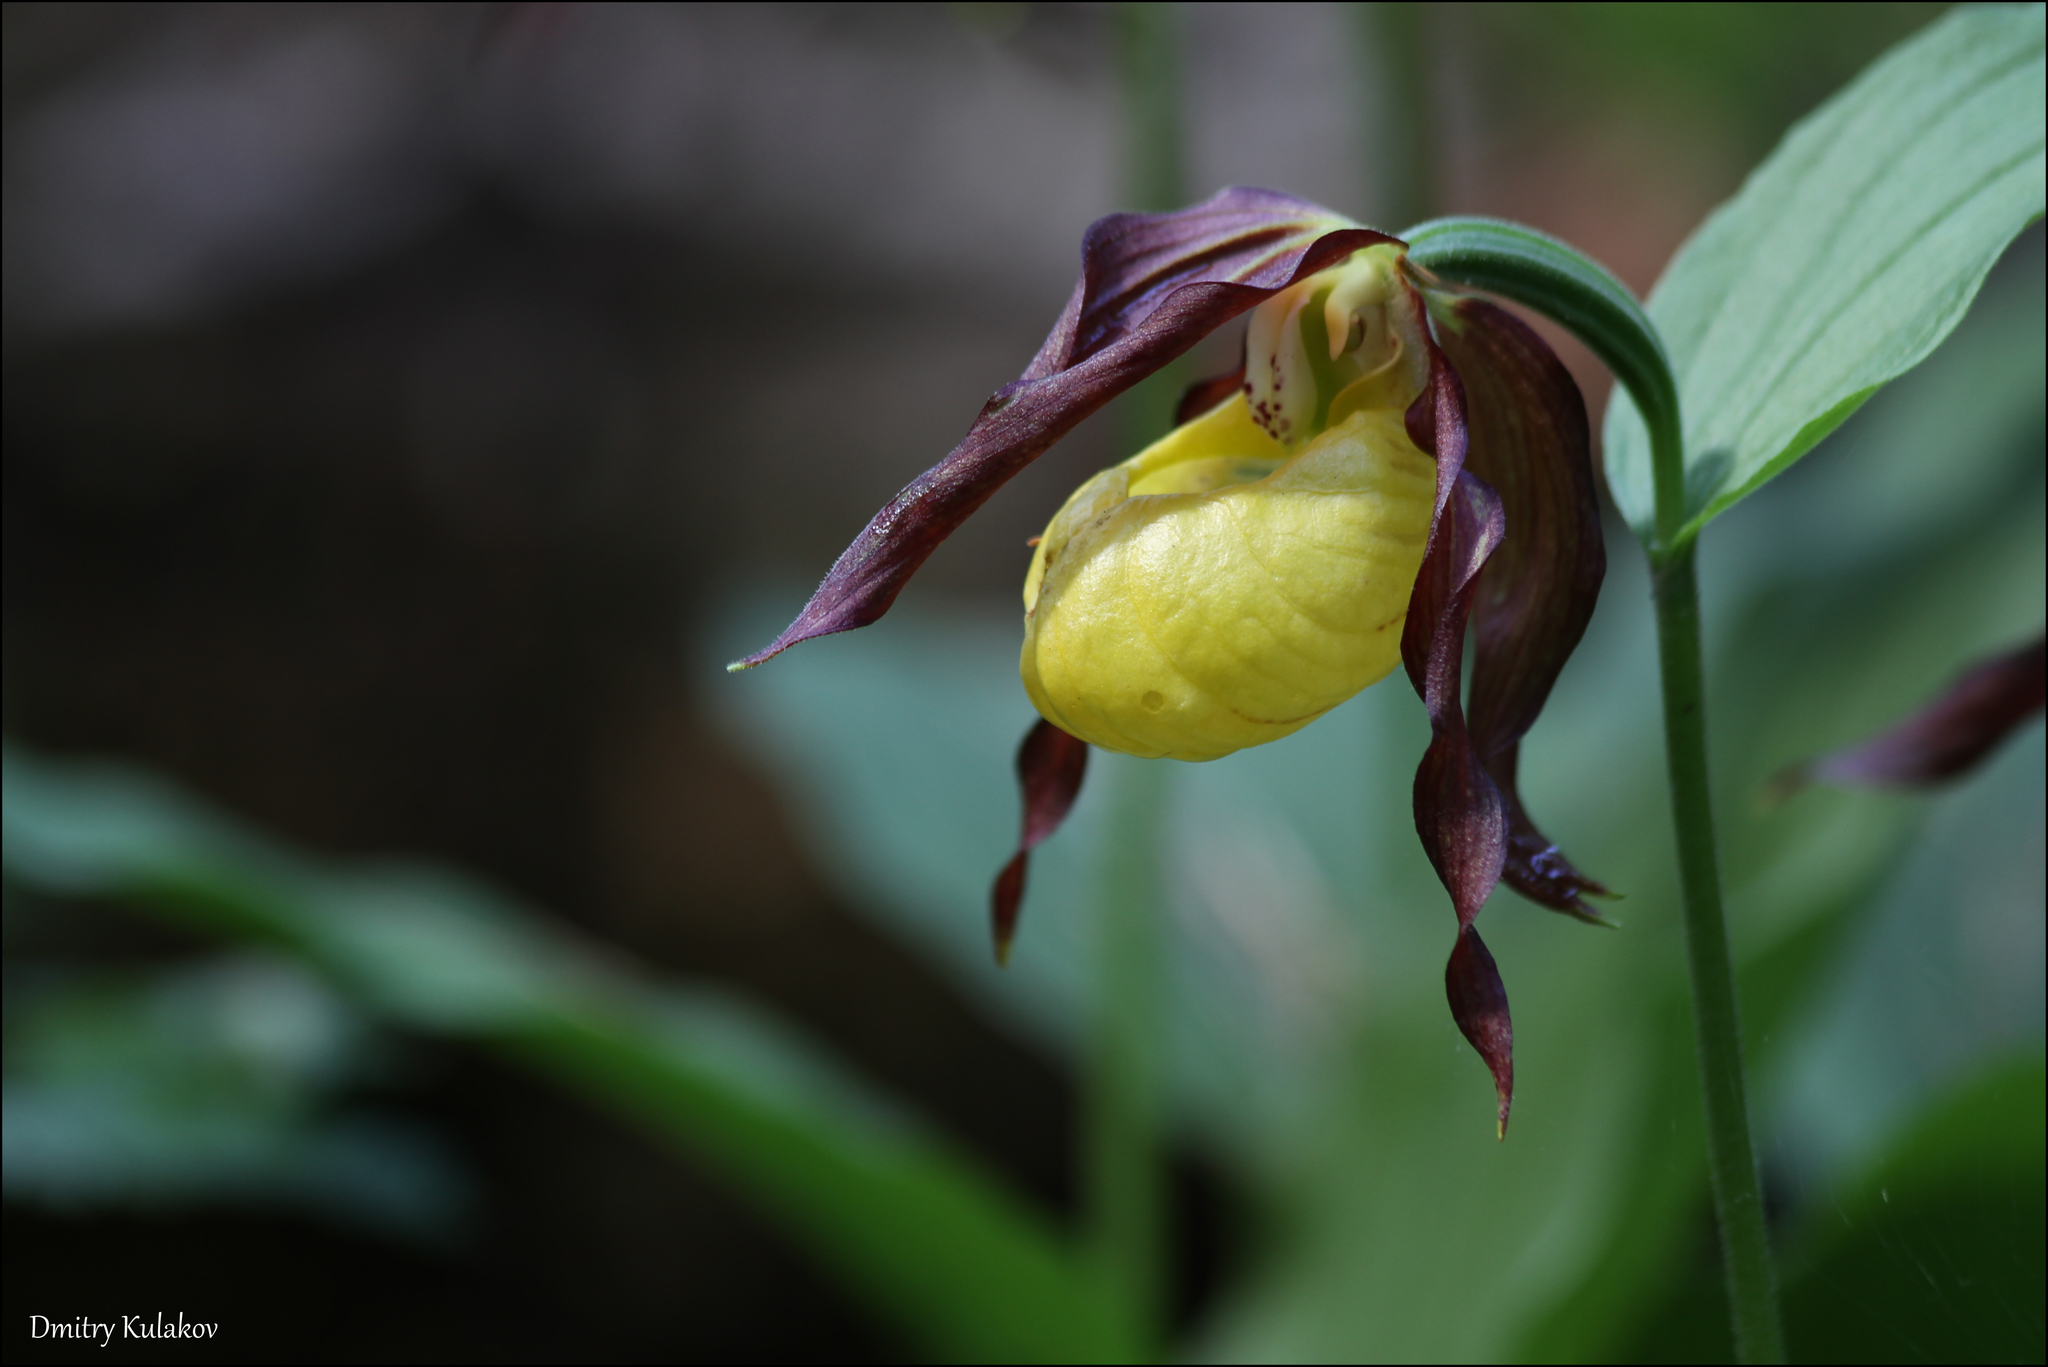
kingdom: Plantae
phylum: Tracheophyta
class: Liliopsida
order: Asparagales
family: Orchidaceae
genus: Cypripedium
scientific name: Cypripedium calceolus
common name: Lady's-slipper
